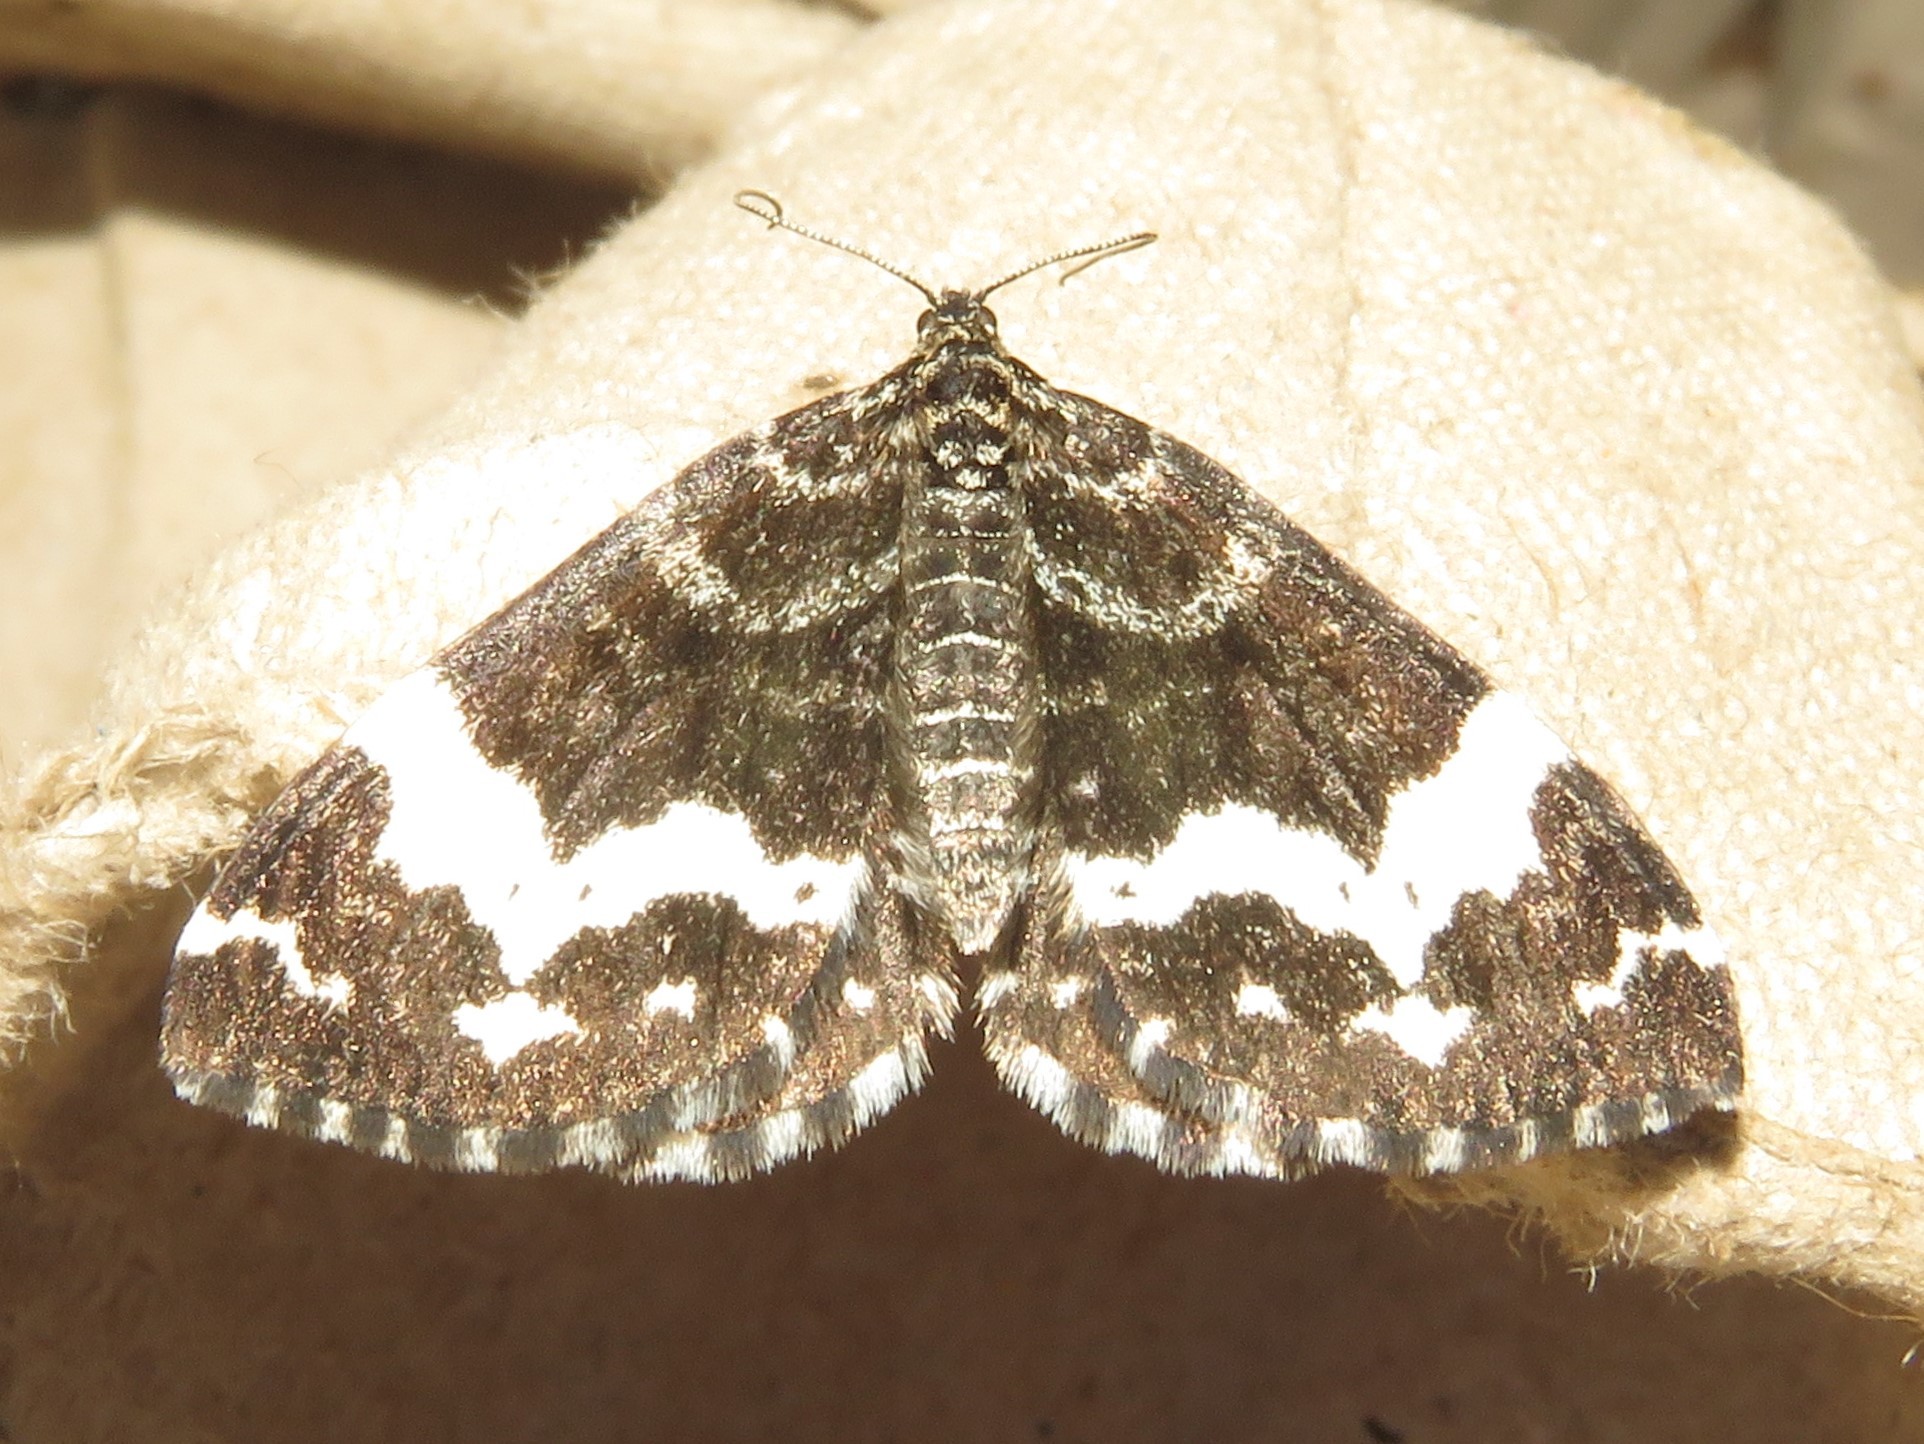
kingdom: Animalia
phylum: Arthropoda
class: Insecta
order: Lepidoptera
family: Geometridae
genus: Rheumaptera
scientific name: Rheumaptera
